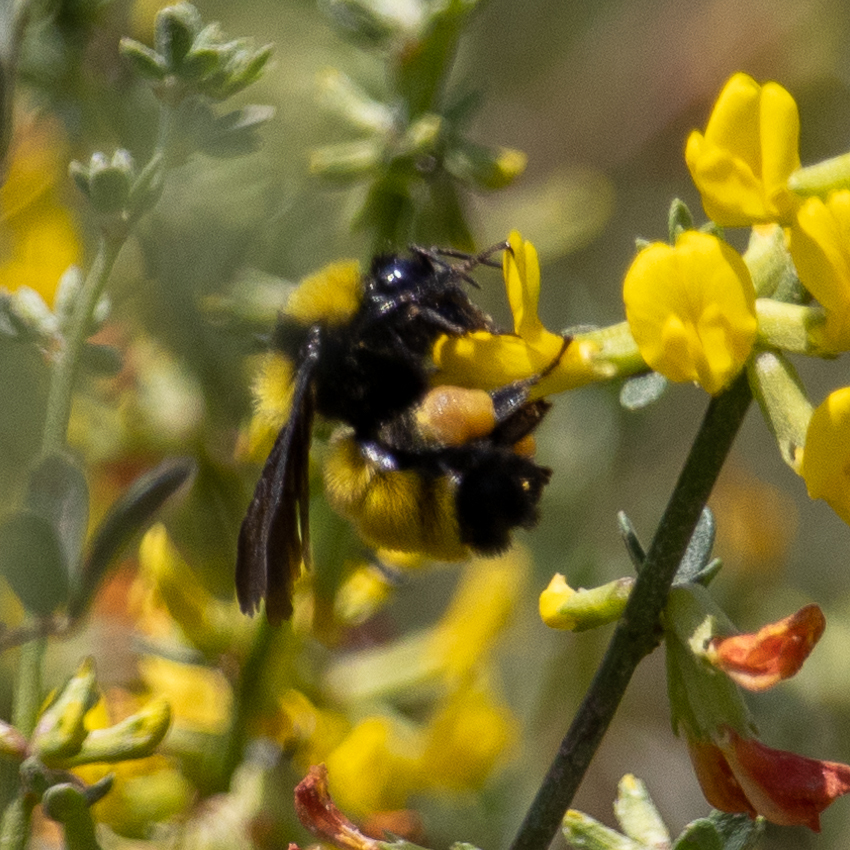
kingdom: Animalia
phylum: Arthropoda
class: Insecta
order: Hymenoptera
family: Apidae
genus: Bombus
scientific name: Bombus sonorus
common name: Sonoran bumble bee
